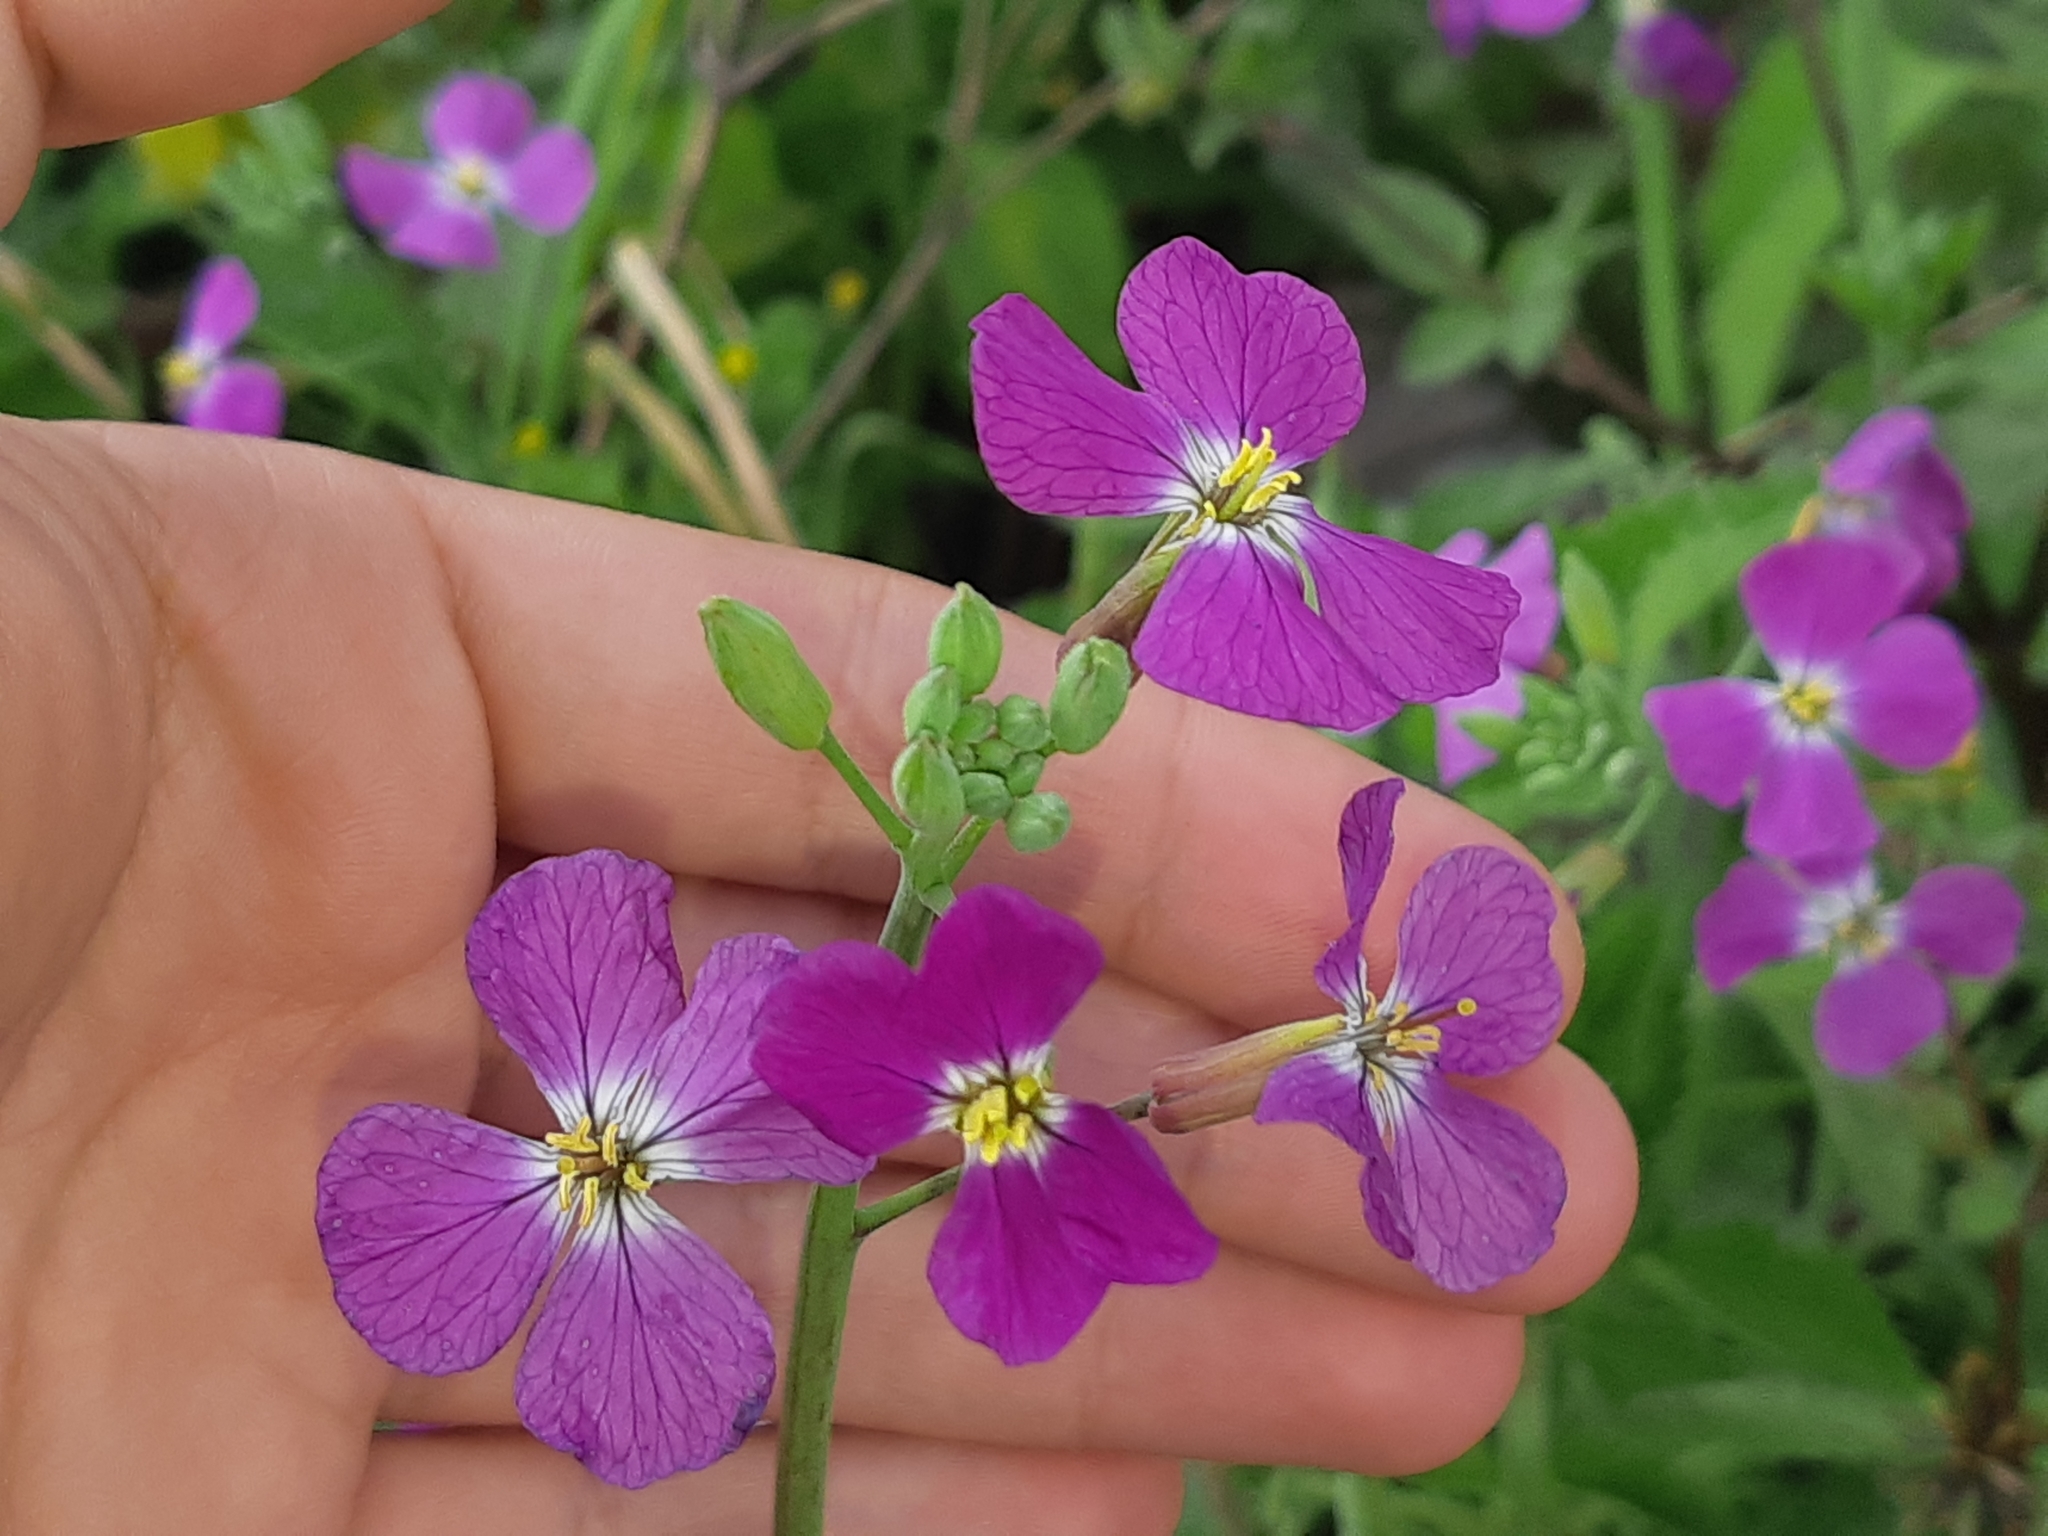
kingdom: Plantae
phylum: Tracheophyta
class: Magnoliopsida
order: Brassicales
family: Brassicaceae
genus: Raphanus
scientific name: Raphanus sativus
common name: Cultivated radish
